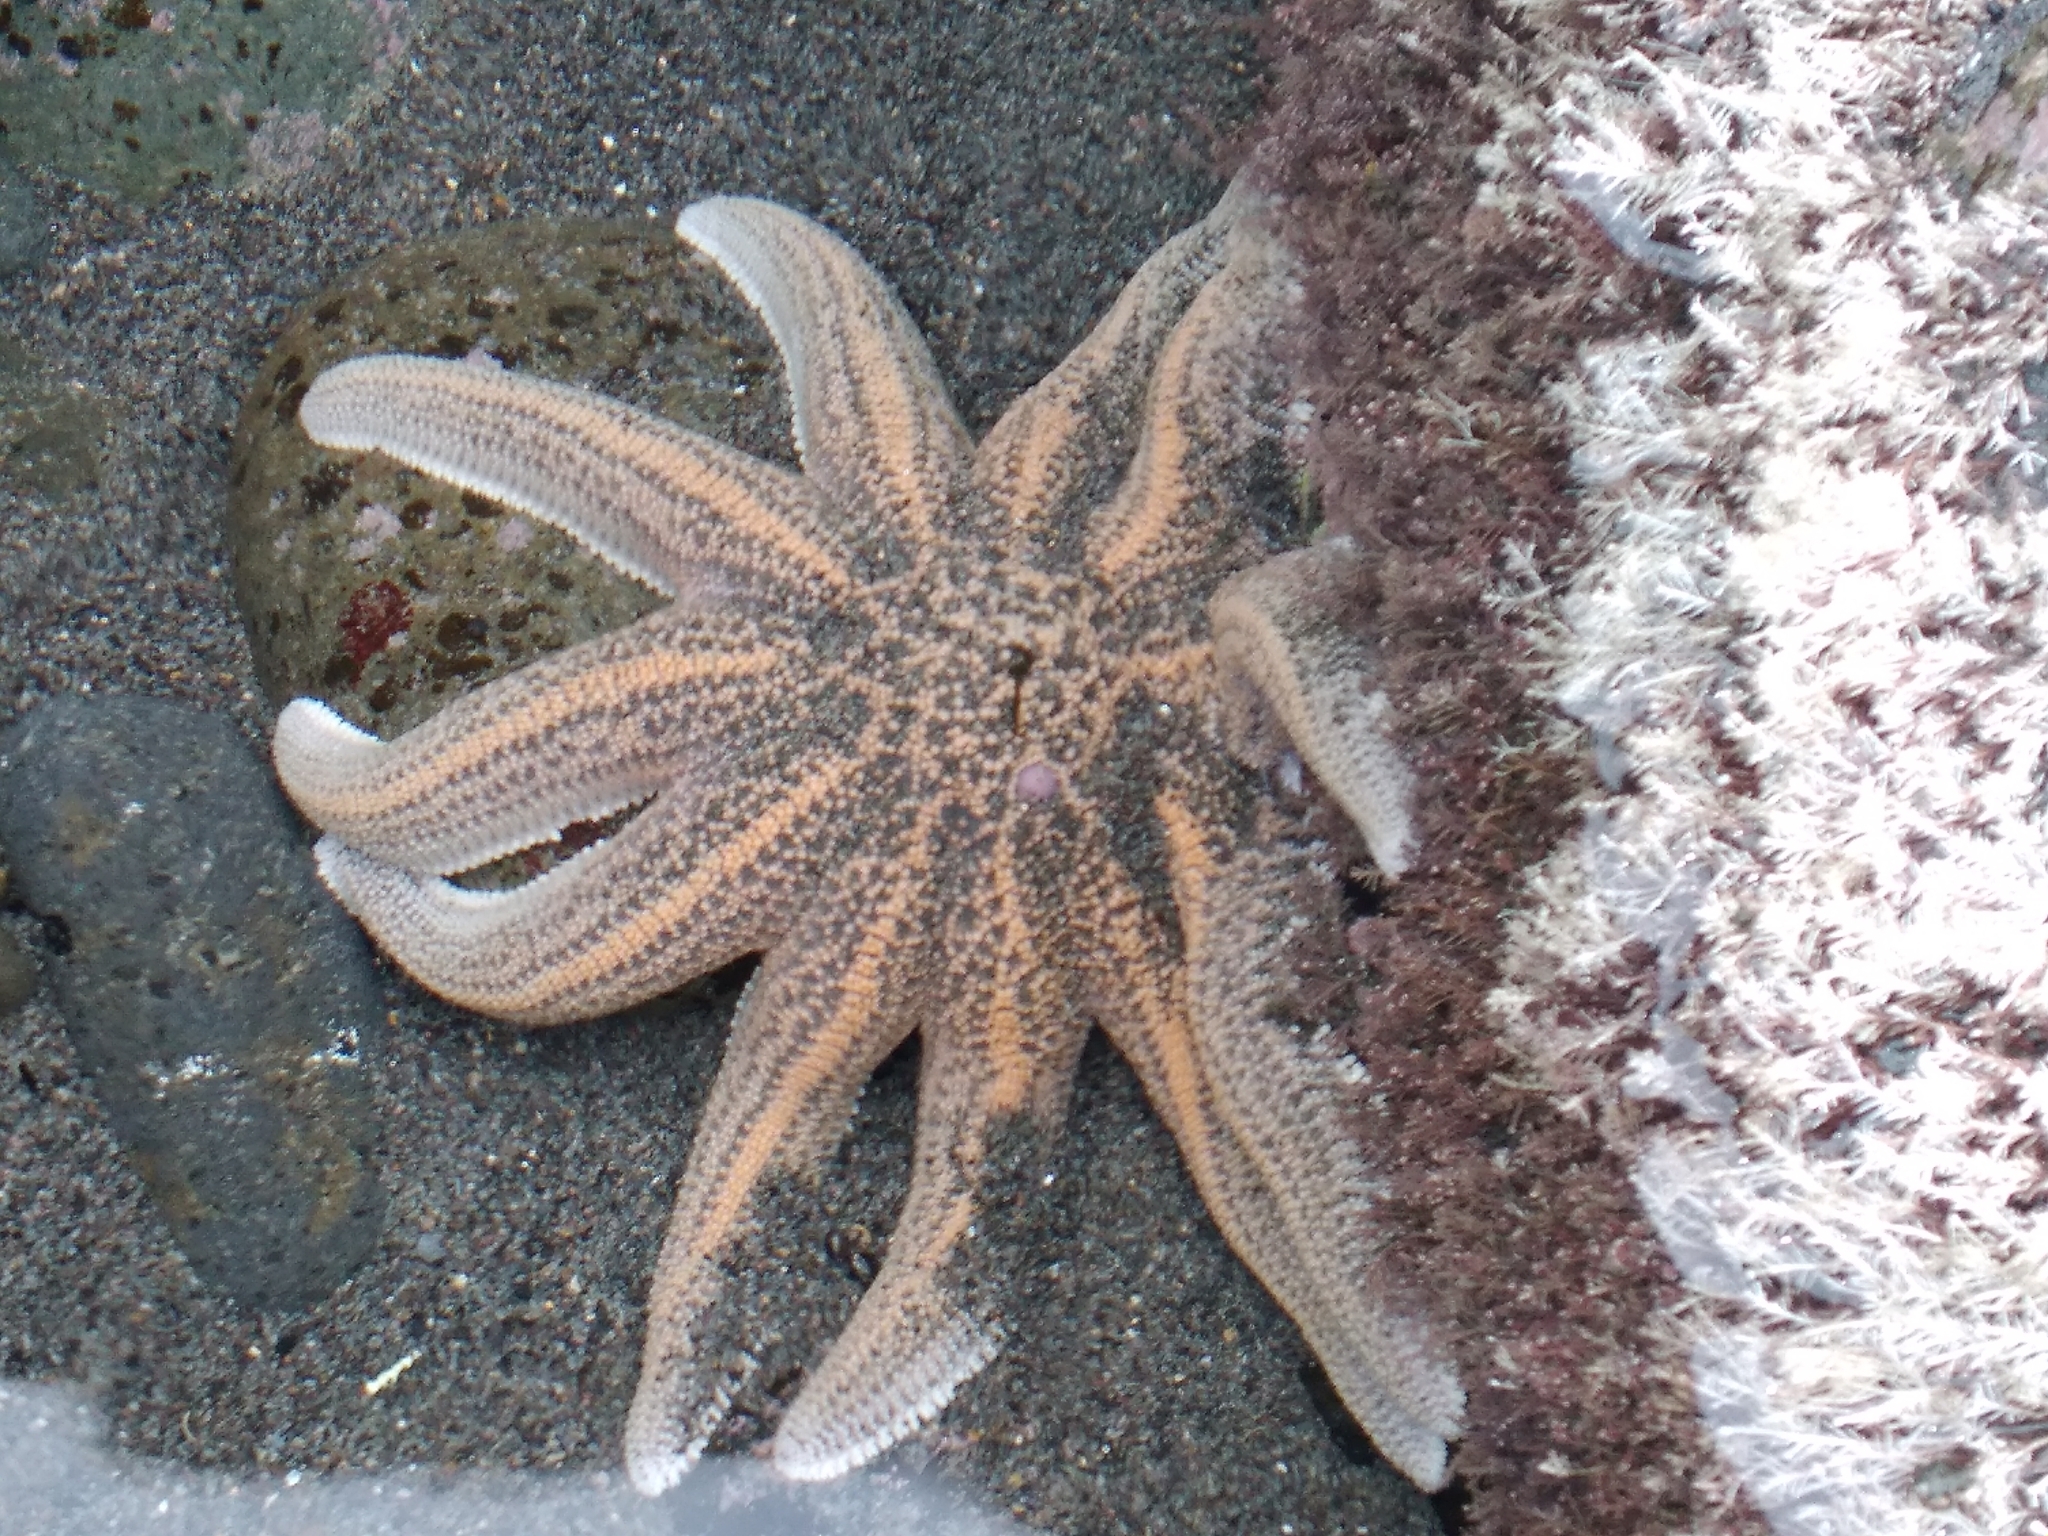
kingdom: Animalia
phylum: Echinodermata
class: Asteroidea
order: Forcipulatida
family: Stichasteridae
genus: Stichaster
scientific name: Stichaster australis
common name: Reef starfish
